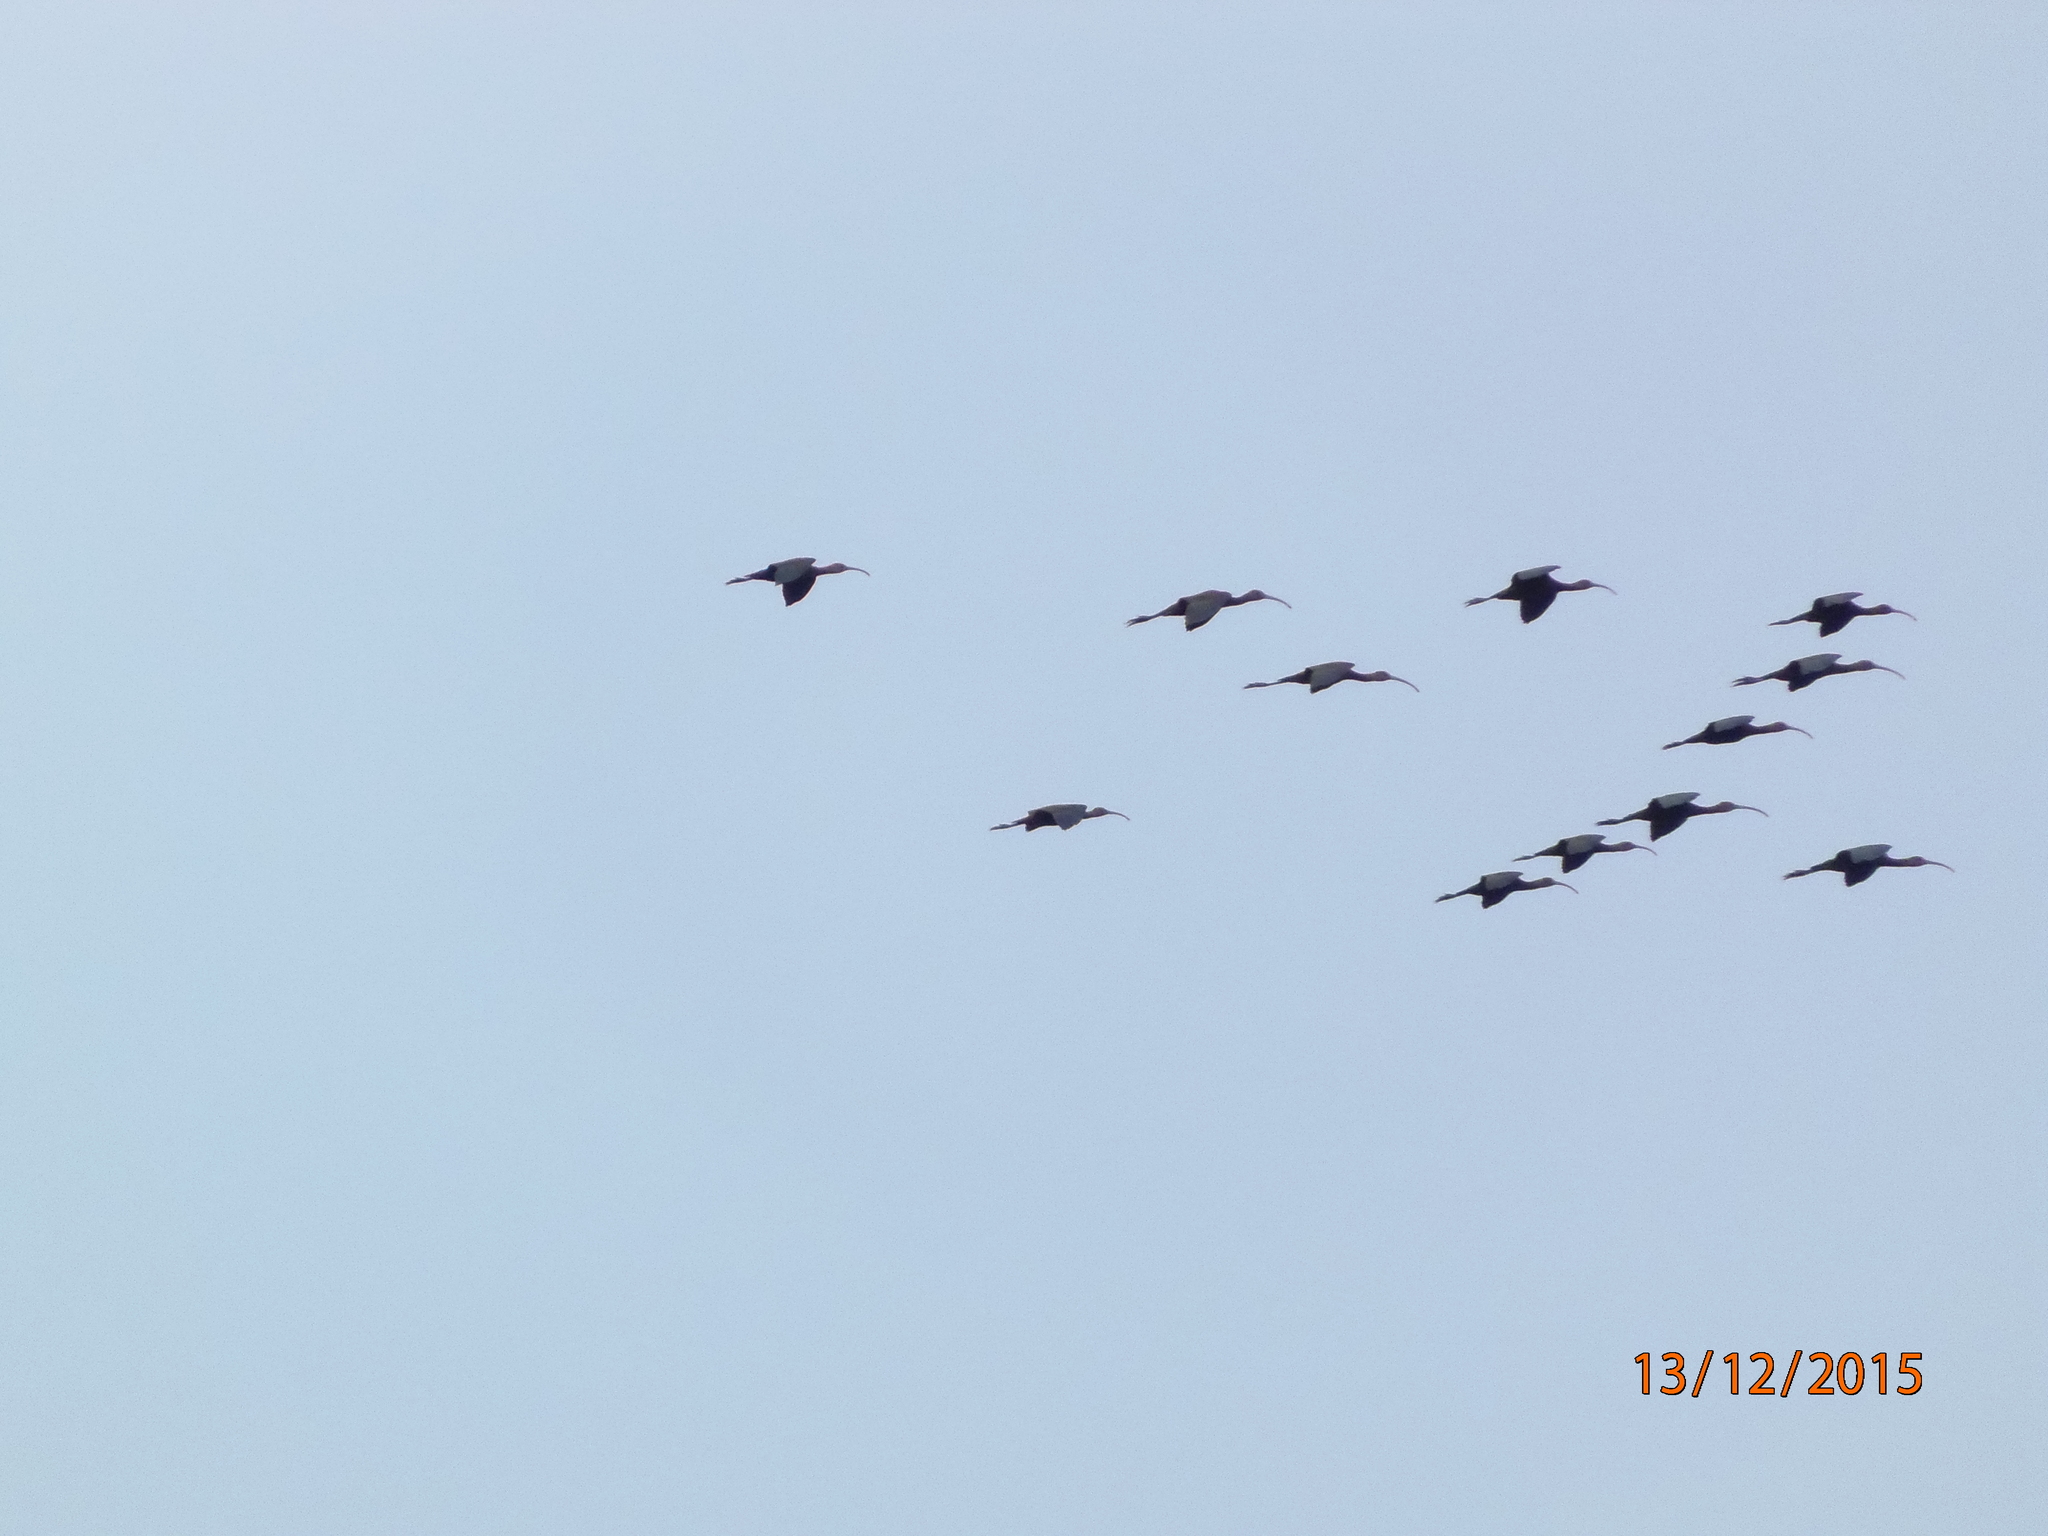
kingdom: Animalia
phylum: Chordata
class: Aves
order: Pelecaniformes
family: Threskiornithidae
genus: Plegadis
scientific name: Plegadis chihi
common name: White-faced ibis
